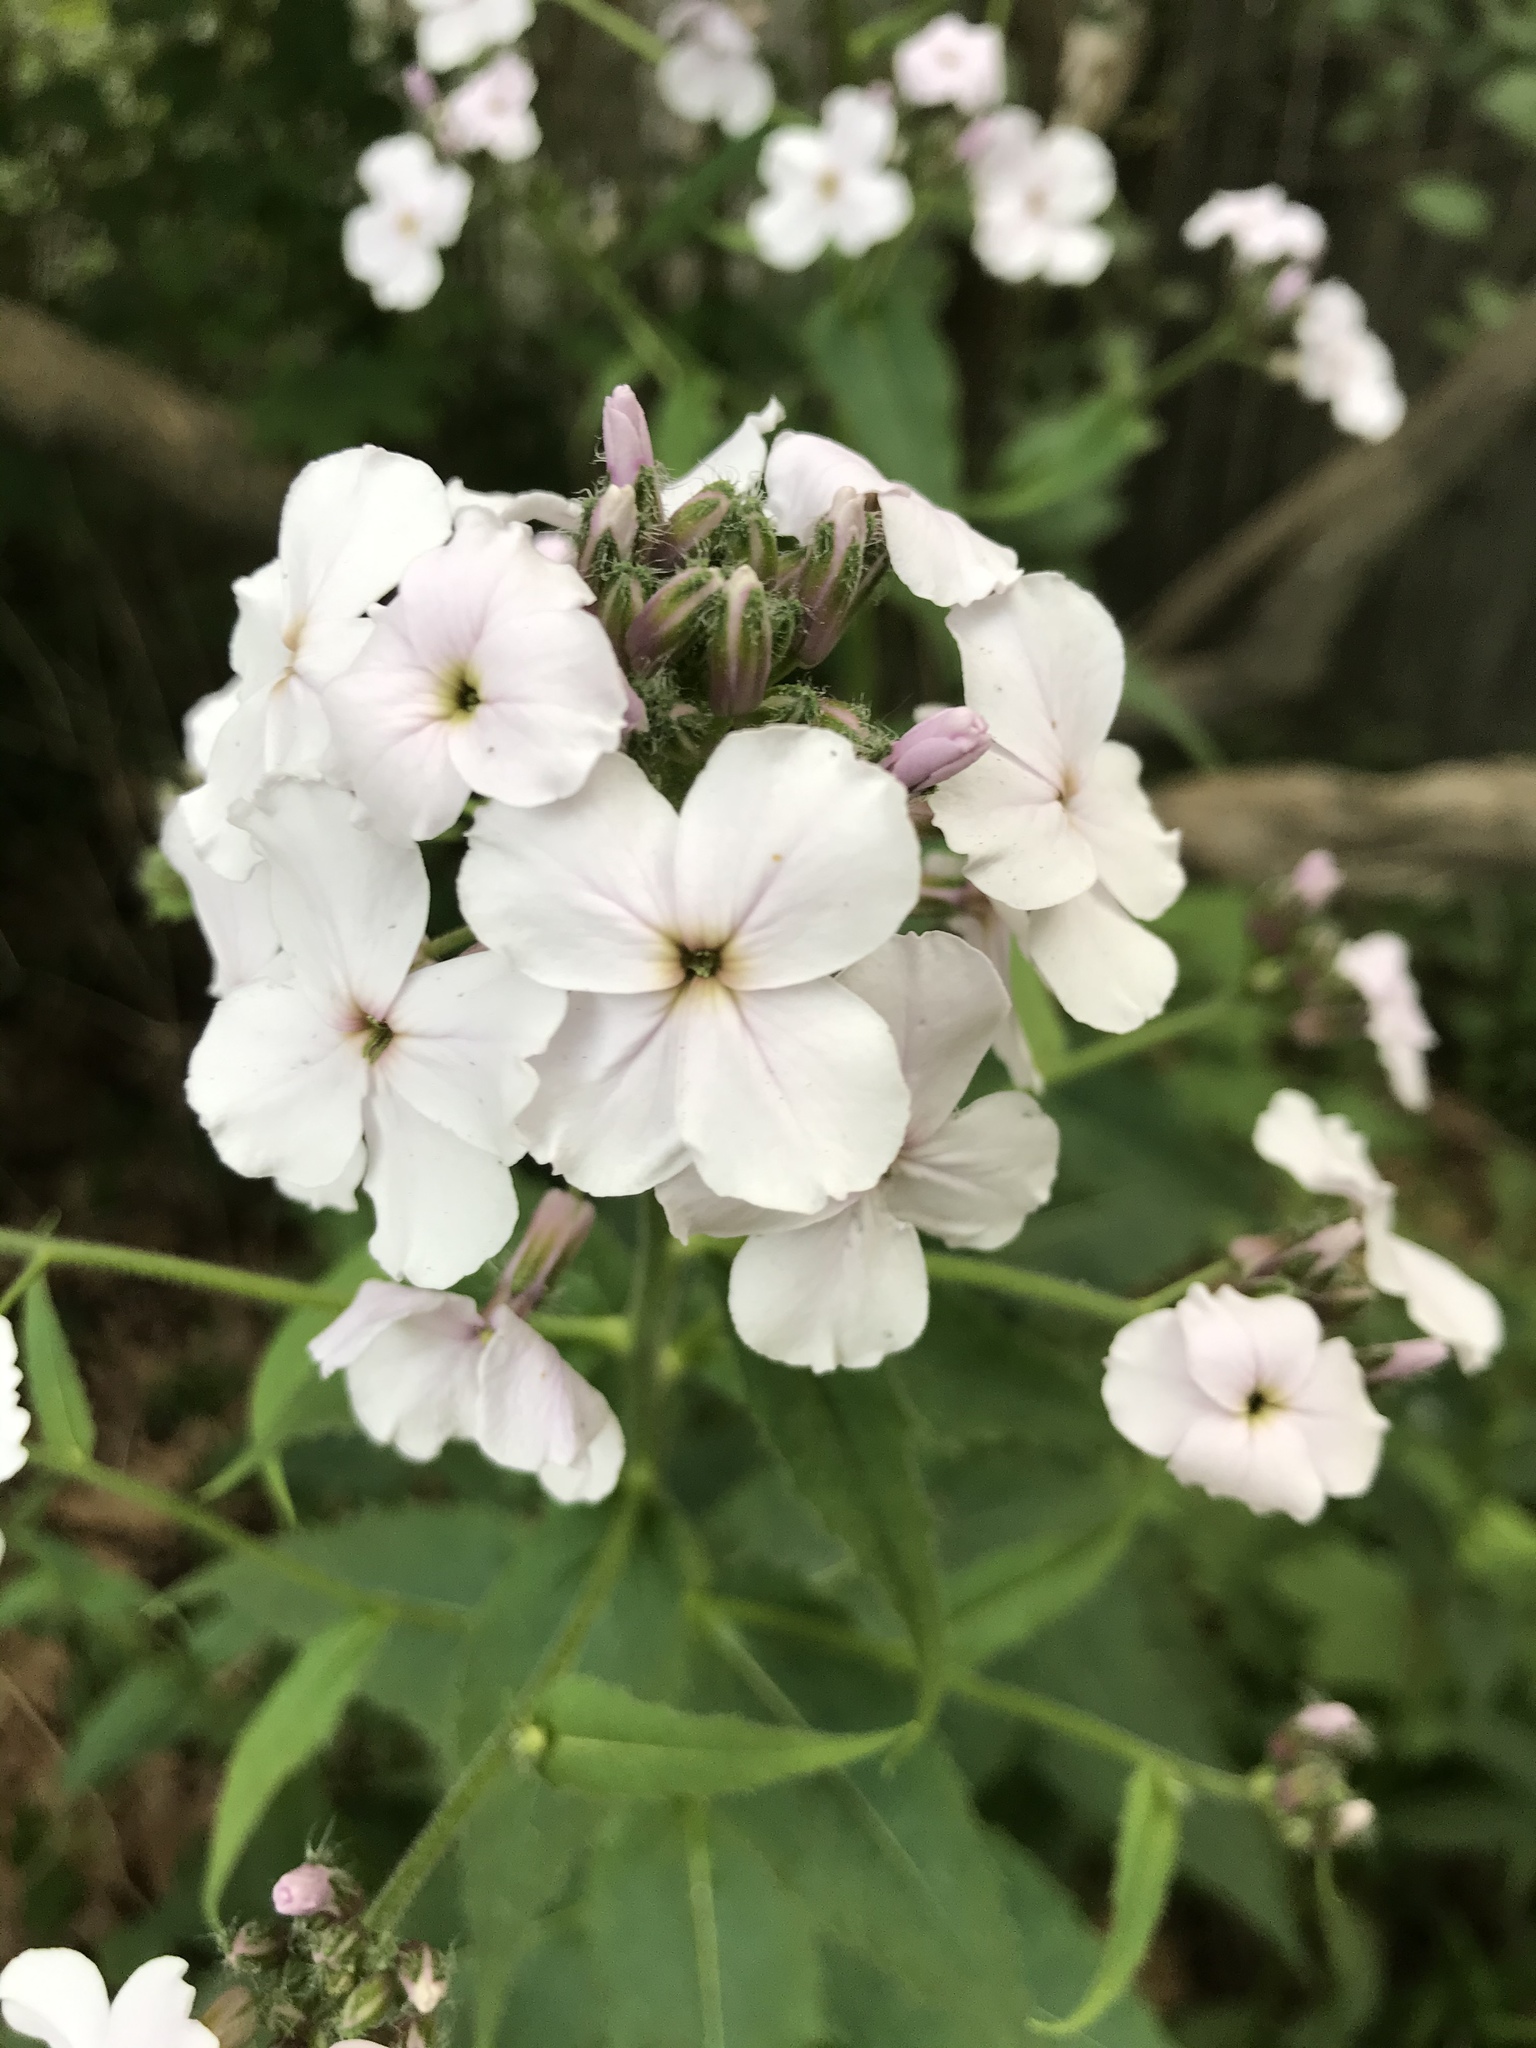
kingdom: Plantae
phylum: Tracheophyta
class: Magnoliopsida
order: Brassicales
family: Brassicaceae
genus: Hesperis
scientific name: Hesperis matronalis
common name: Dame's-violet
